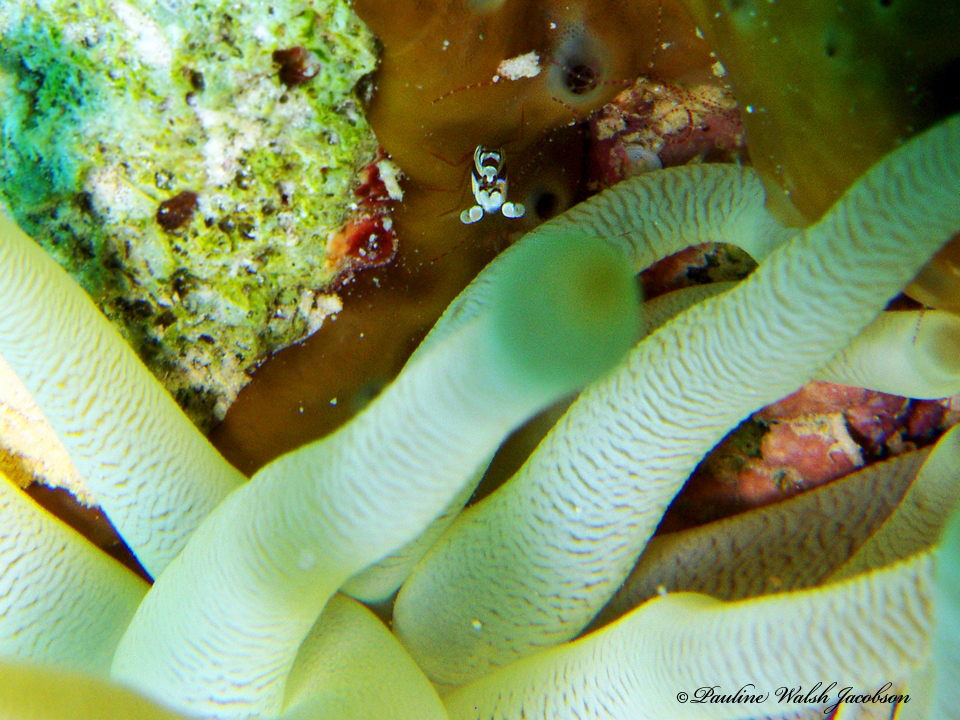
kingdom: Animalia
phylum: Arthropoda
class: Malacostraca
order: Decapoda
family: Thoridae
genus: Thor
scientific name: Thor dicaprio
